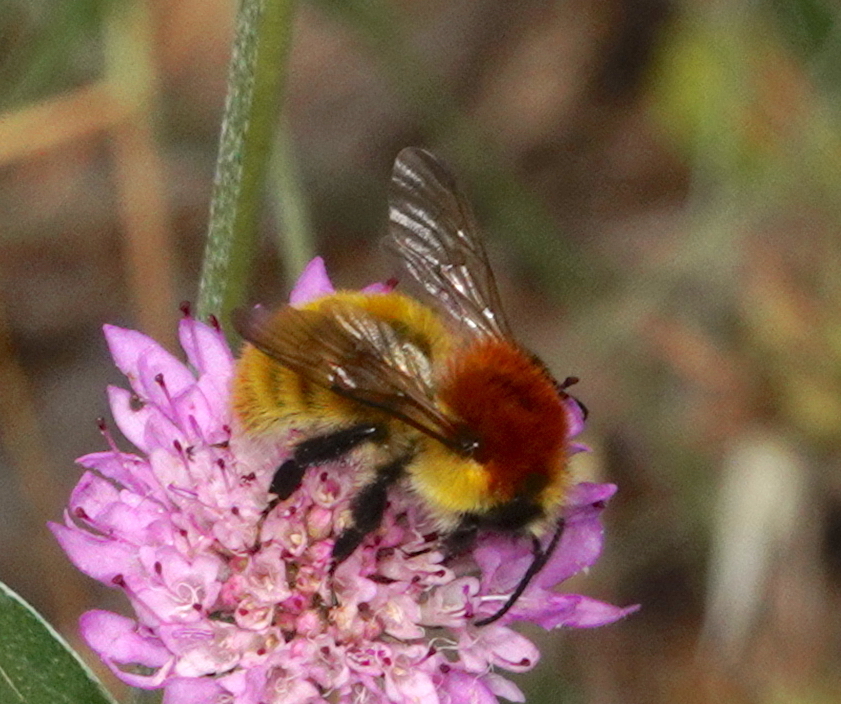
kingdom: Animalia
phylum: Arthropoda
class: Insecta
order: Hymenoptera
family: Apidae
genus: Bombus
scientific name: Bombus pascuorum
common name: Common carder bee
